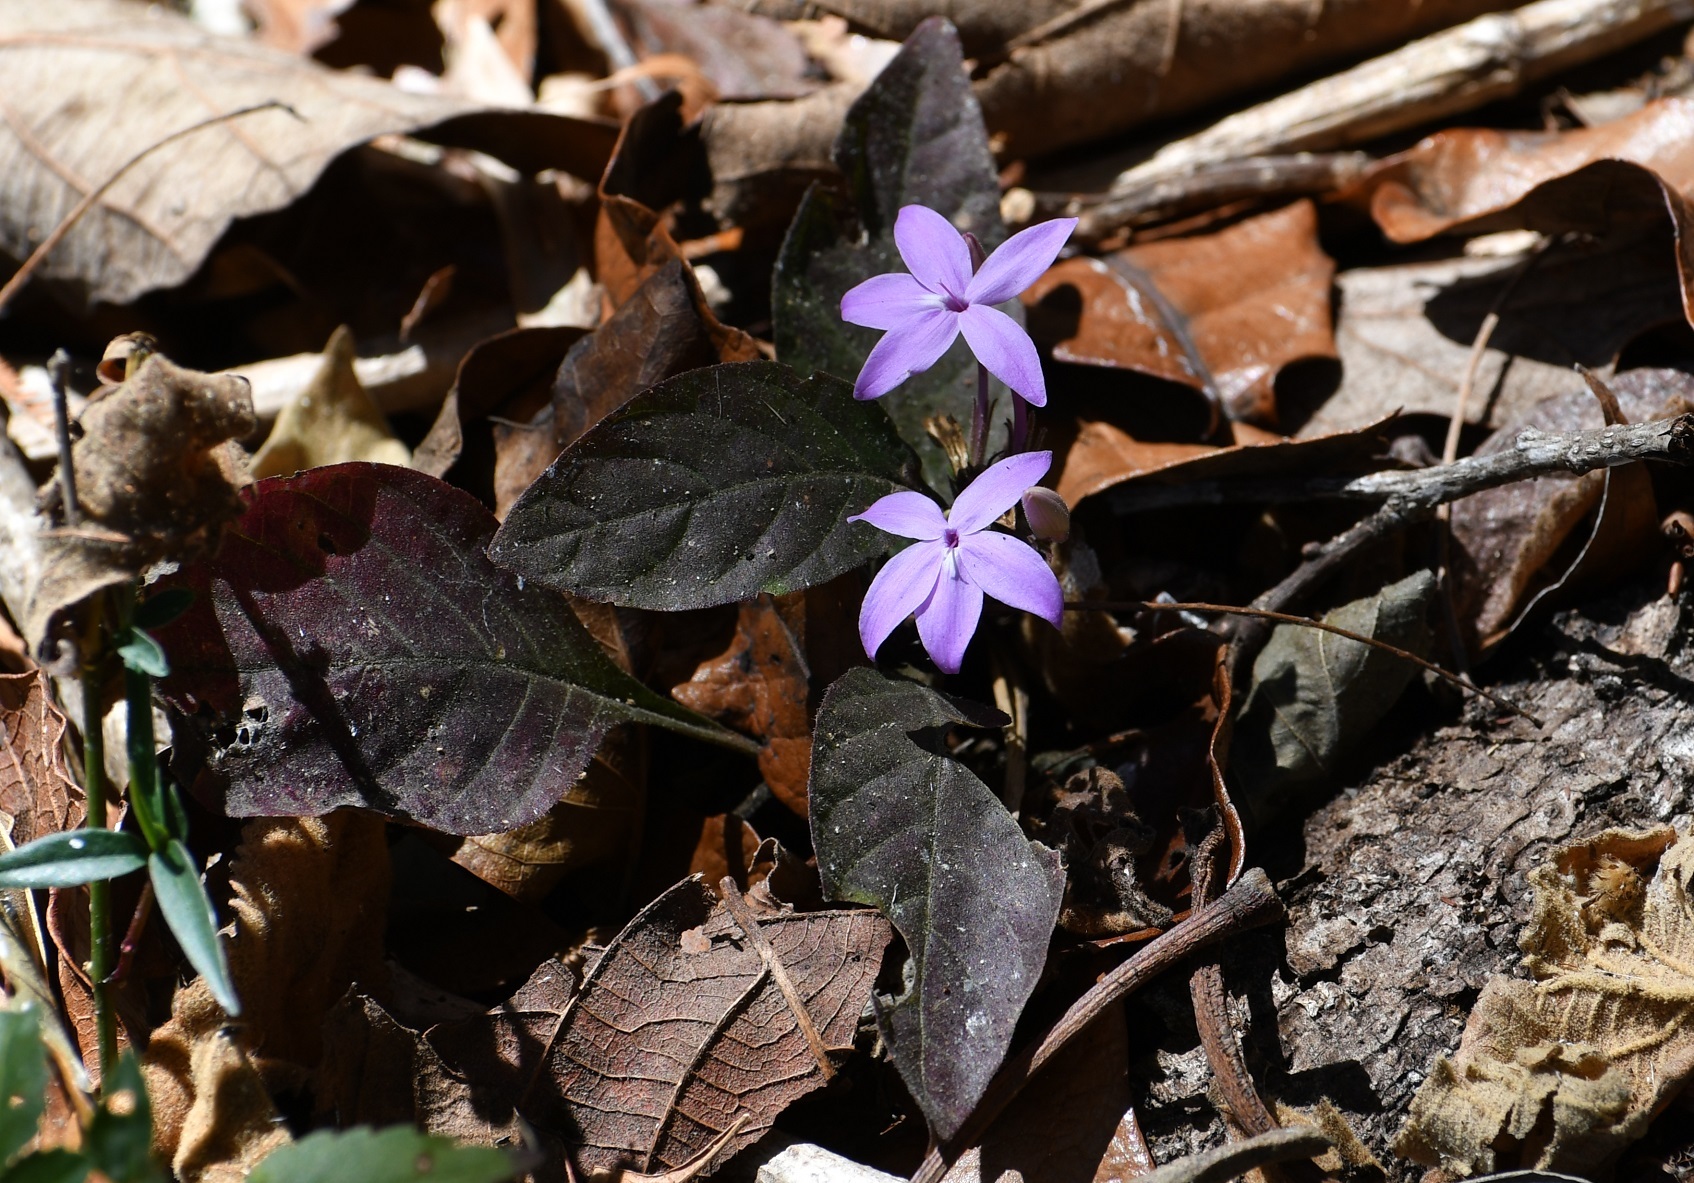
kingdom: Plantae
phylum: Tracheophyta
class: Magnoliopsida
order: Lamiales
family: Acanthaceae
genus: Pseuderanthemum
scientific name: Pseuderanthemum praecox
